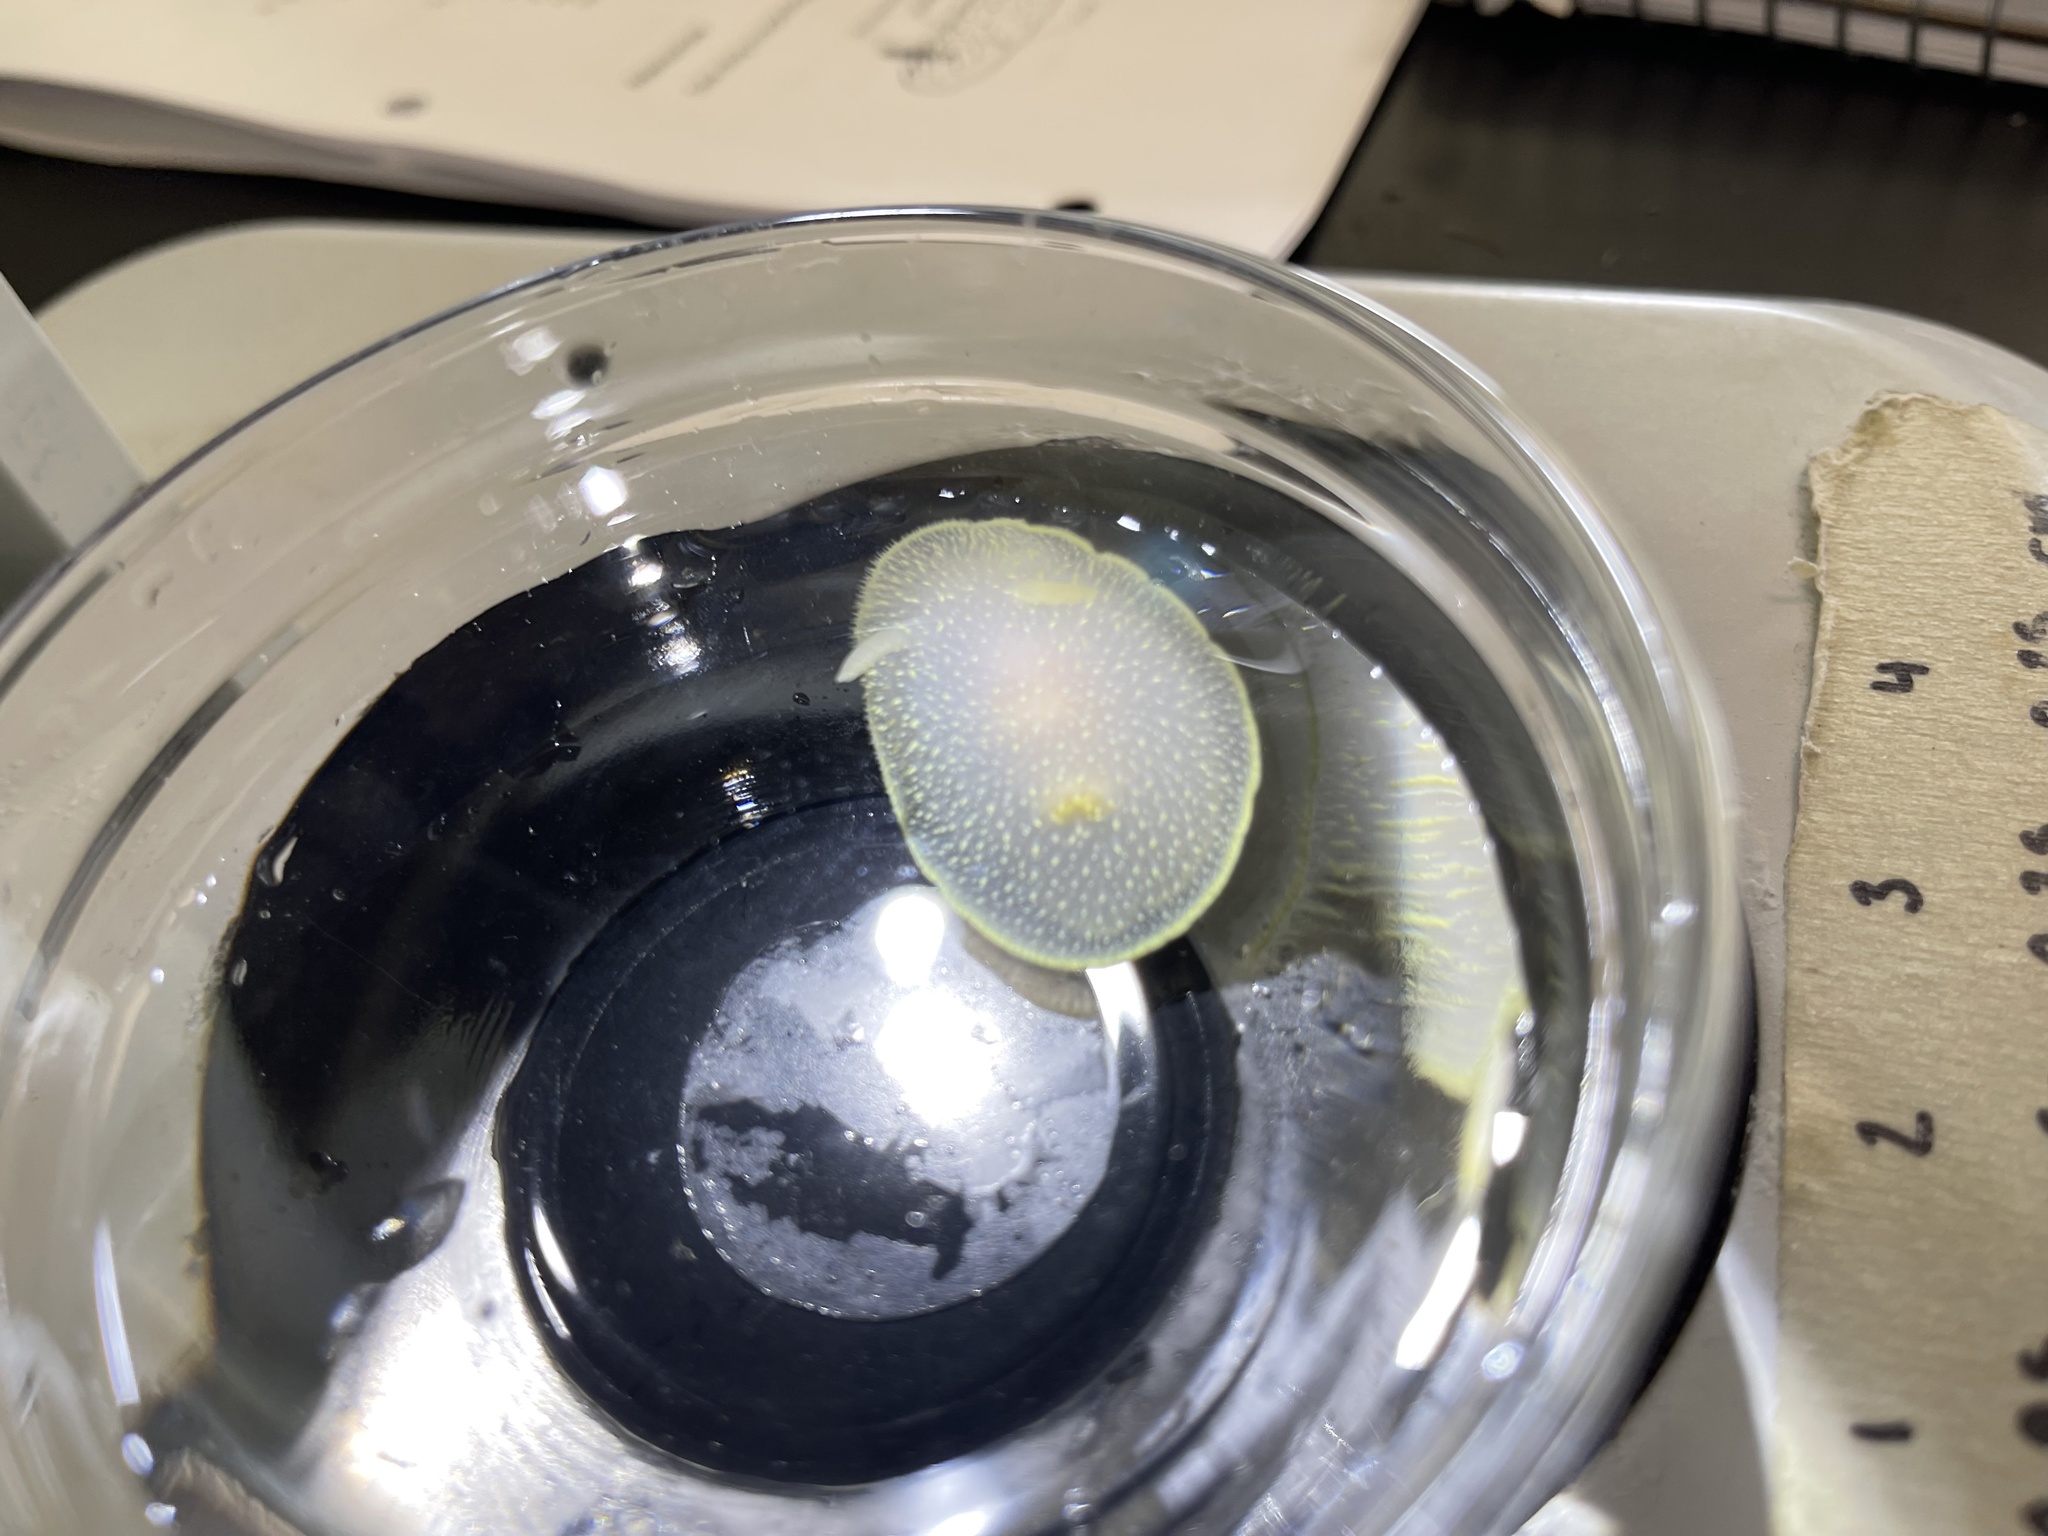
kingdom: Animalia
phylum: Mollusca
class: Gastropoda
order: Nudibranchia
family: Onchidorididae
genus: Acanthodoris
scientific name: Acanthodoris hudsoni
